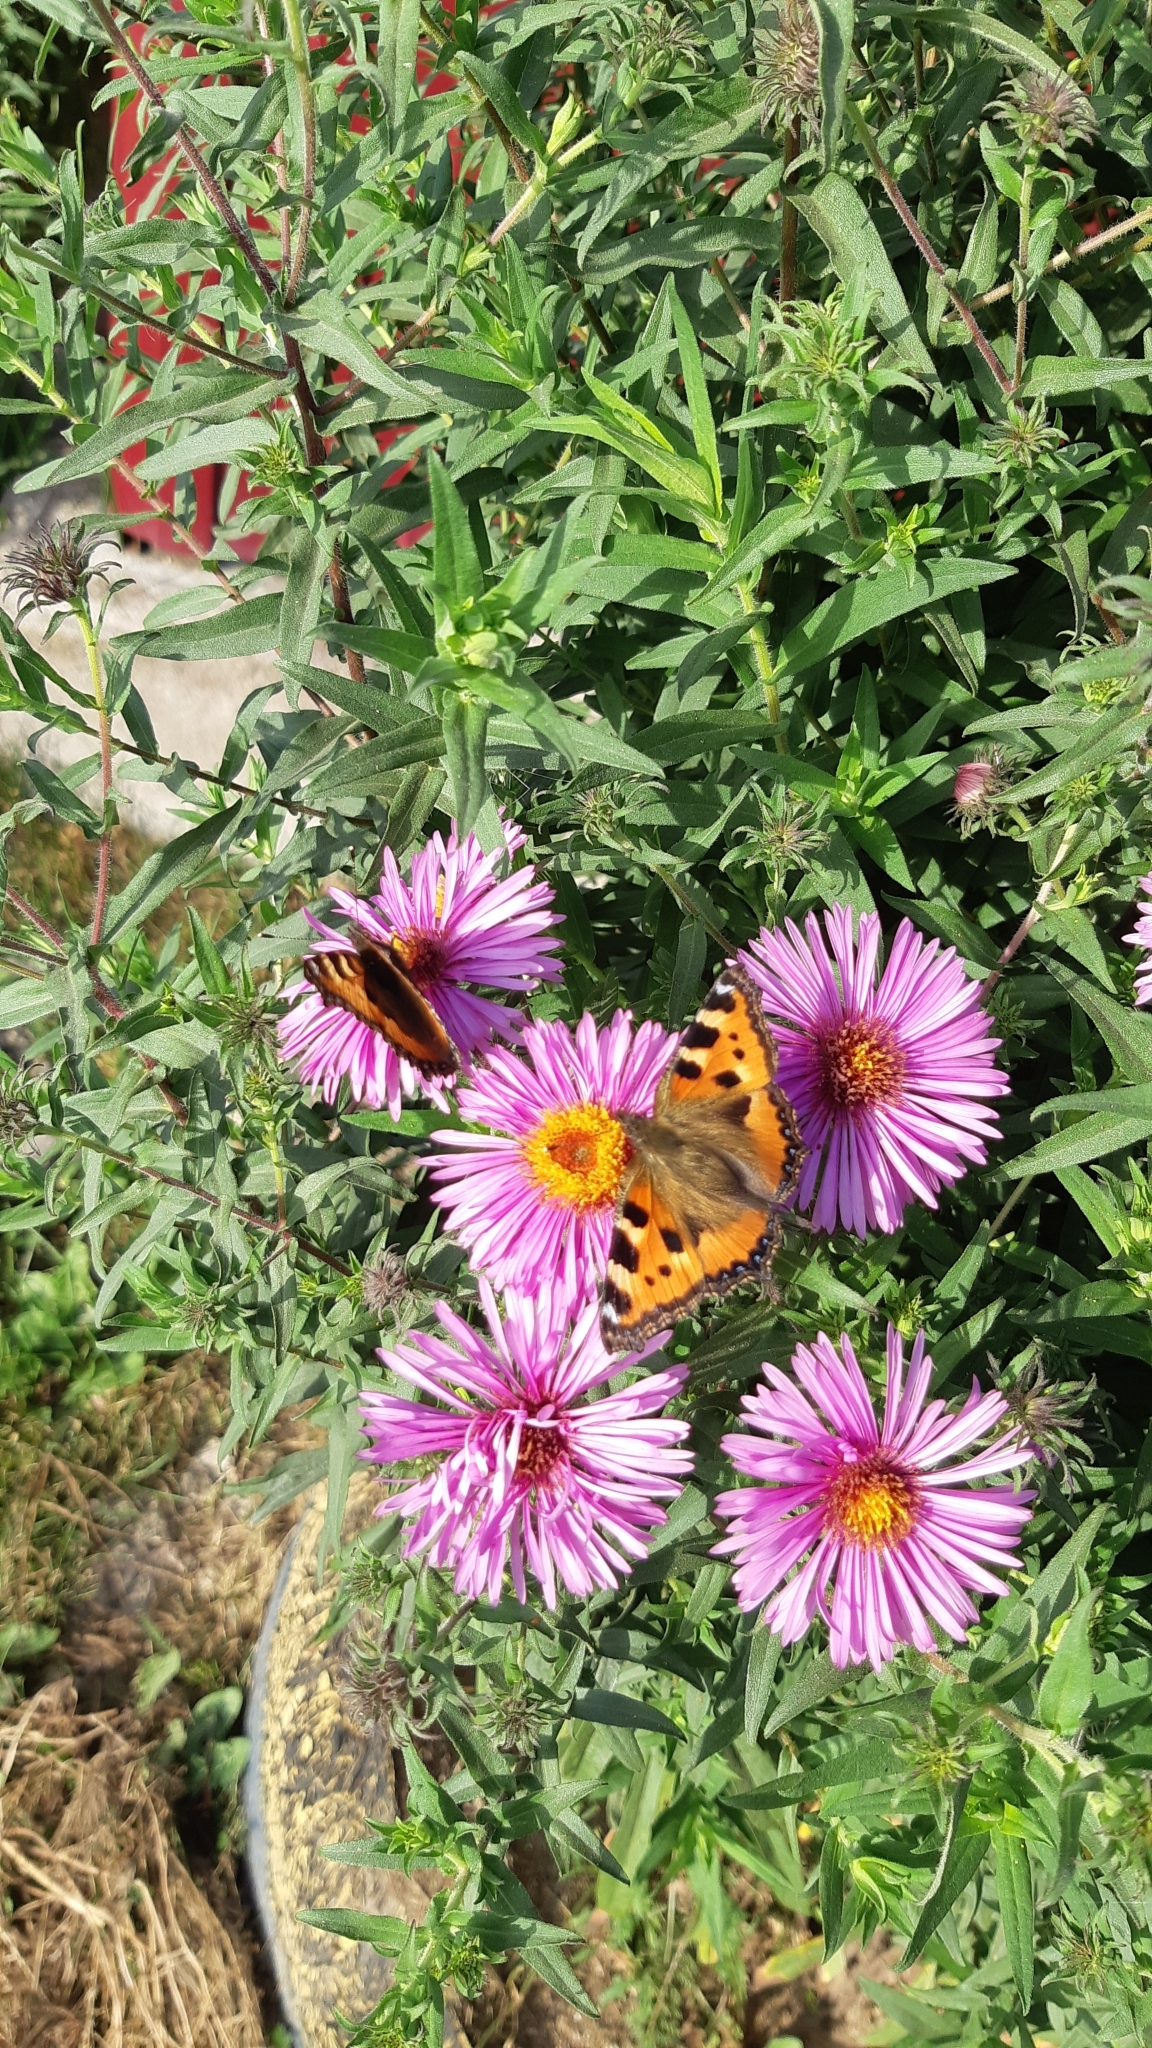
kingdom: Animalia
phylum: Arthropoda
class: Insecta
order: Lepidoptera
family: Nymphalidae
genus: Aglais
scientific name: Aglais urticae
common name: Small tortoiseshell
